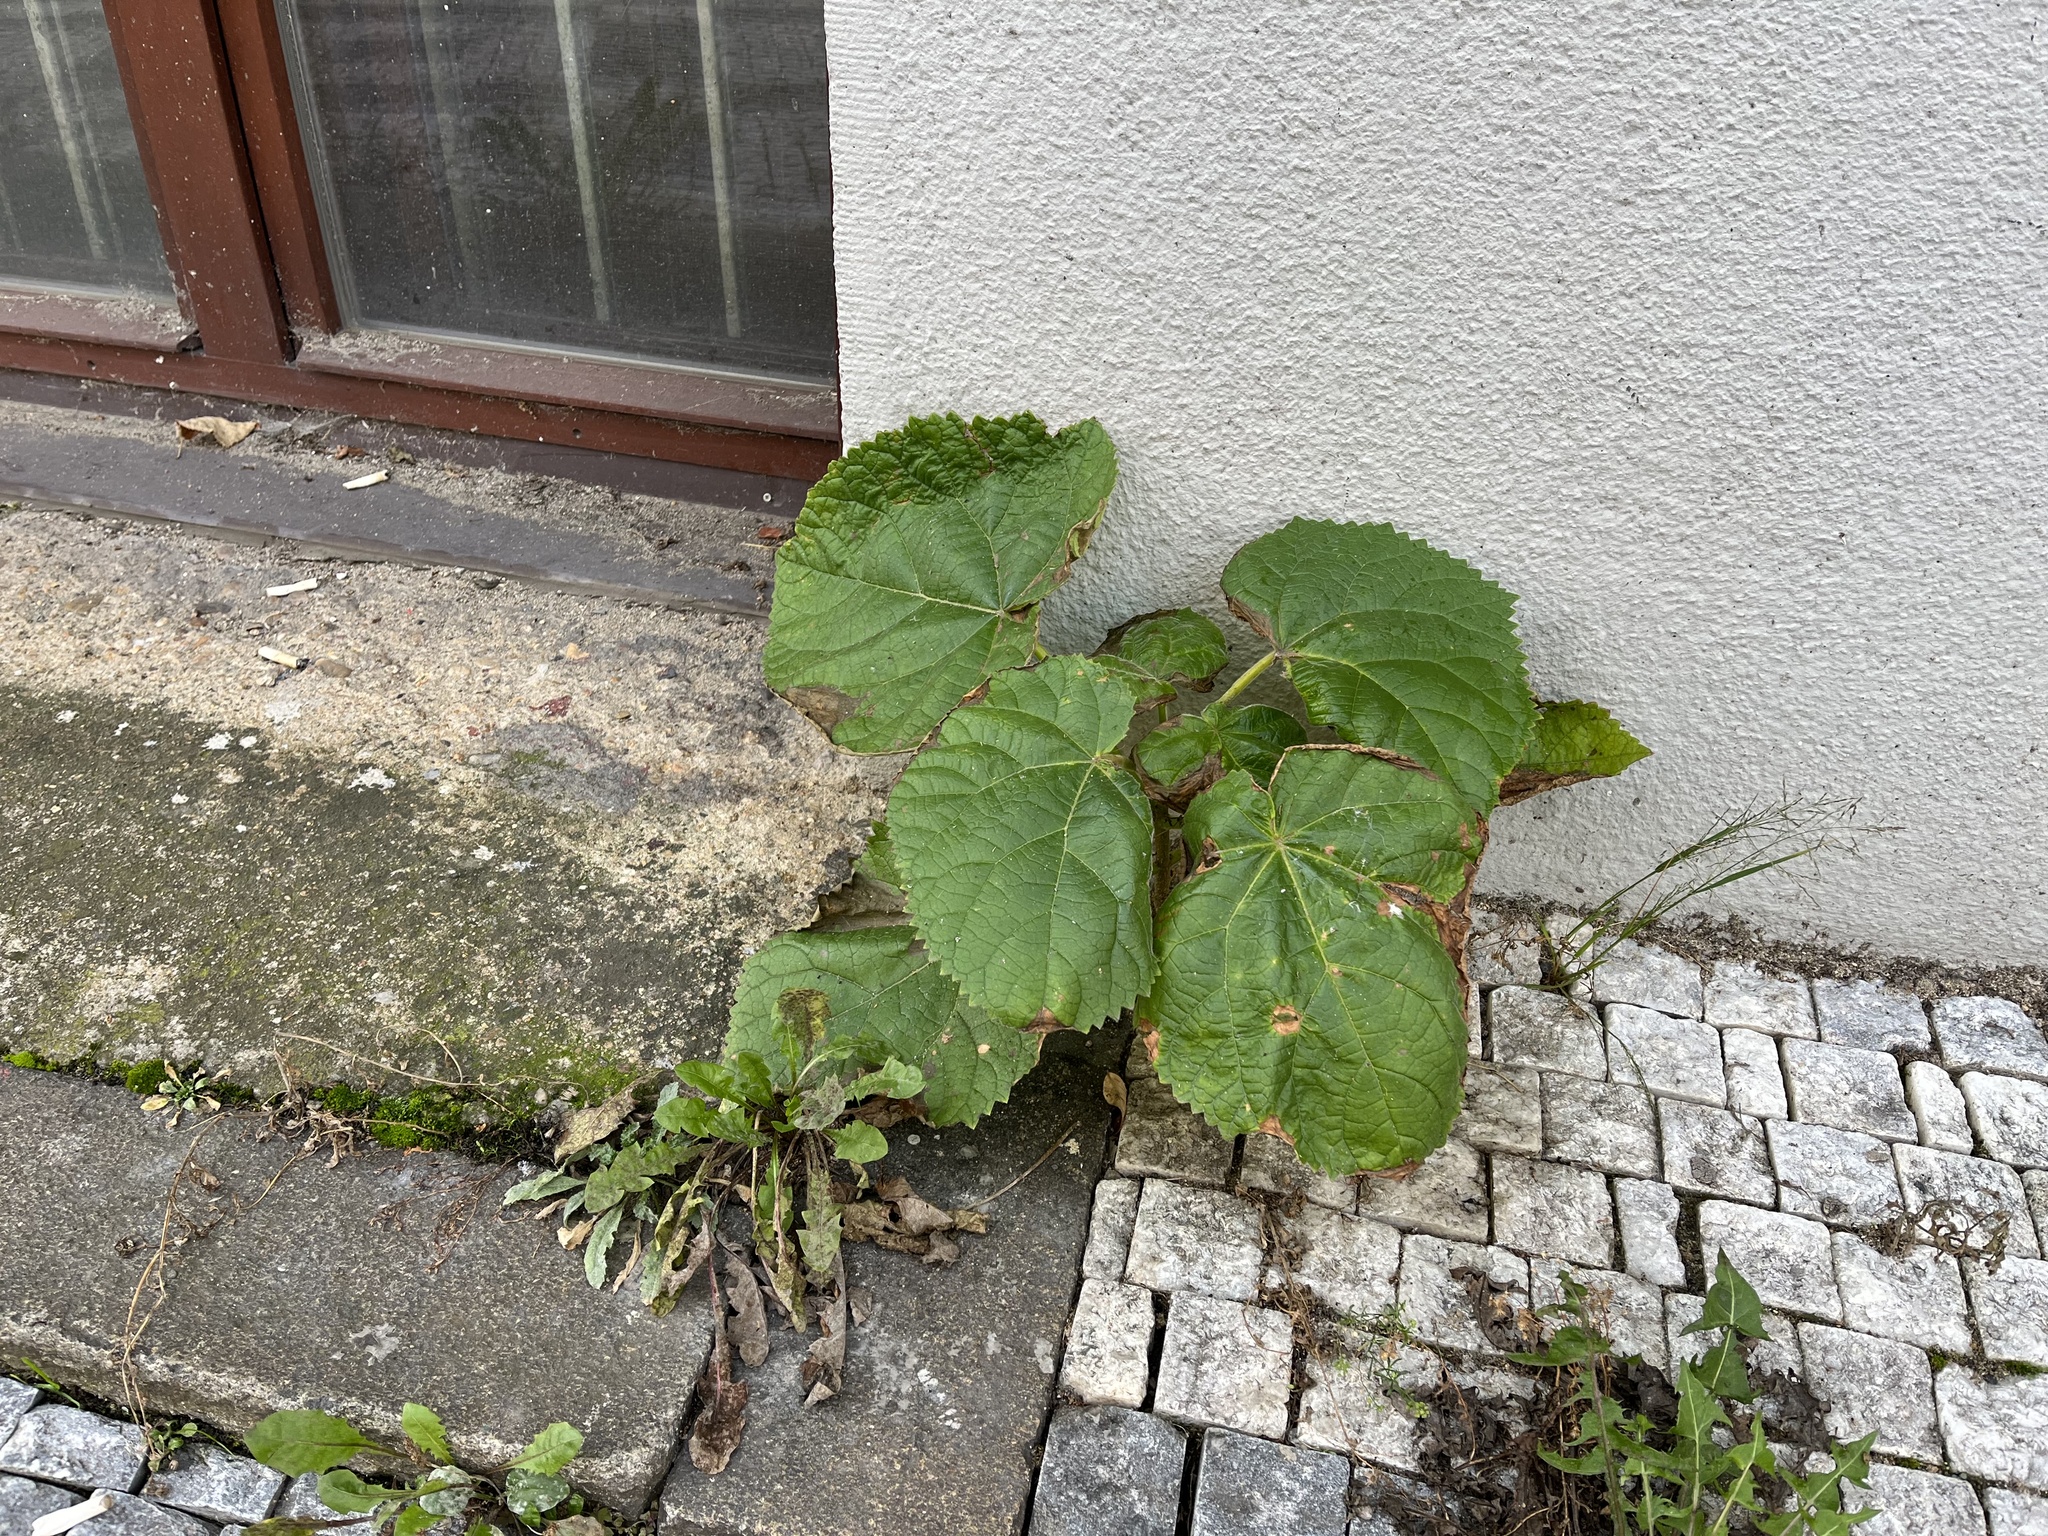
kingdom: Plantae
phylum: Tracheophyta
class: Magnoliopsida
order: Lamiales
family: Paulowniaceae
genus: Paulownia
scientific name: Paulownia tomentosa
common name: Foxglove-tree
